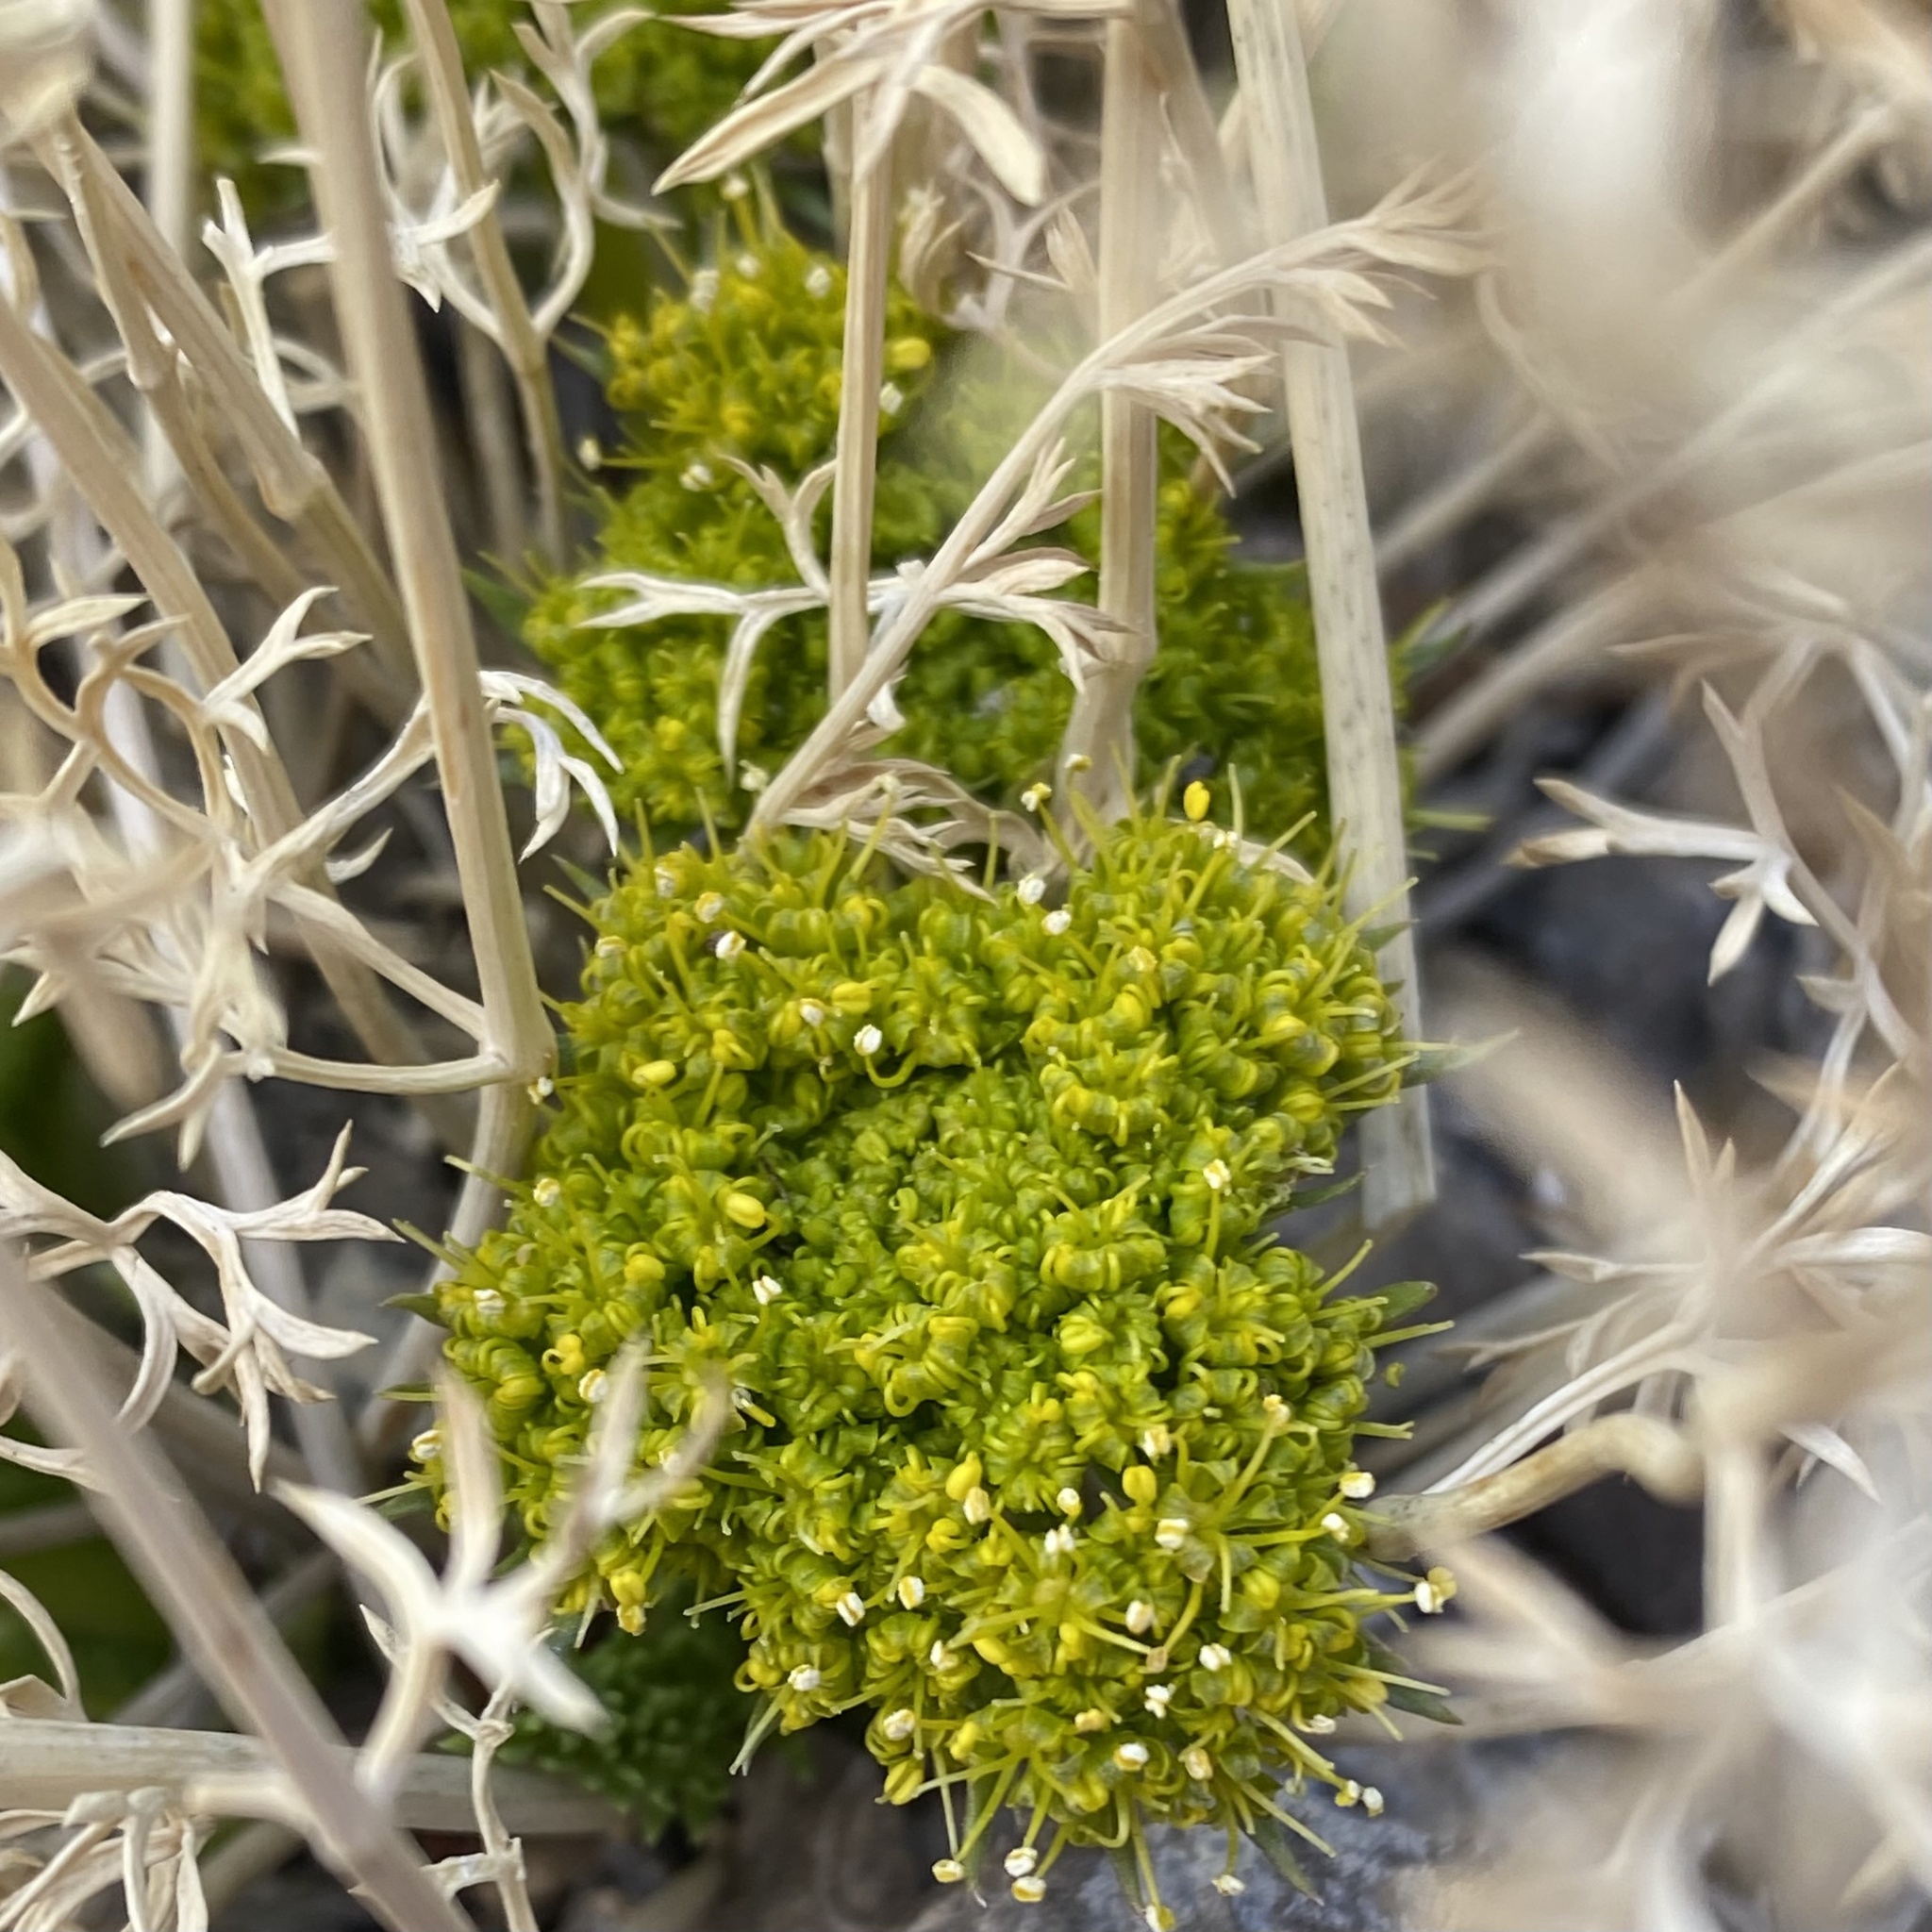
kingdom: Plantae
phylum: Tracheophyta
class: Magnoliopsida
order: Apiales
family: Apiaceae
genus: Lomatium
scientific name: Lomatium parryi
